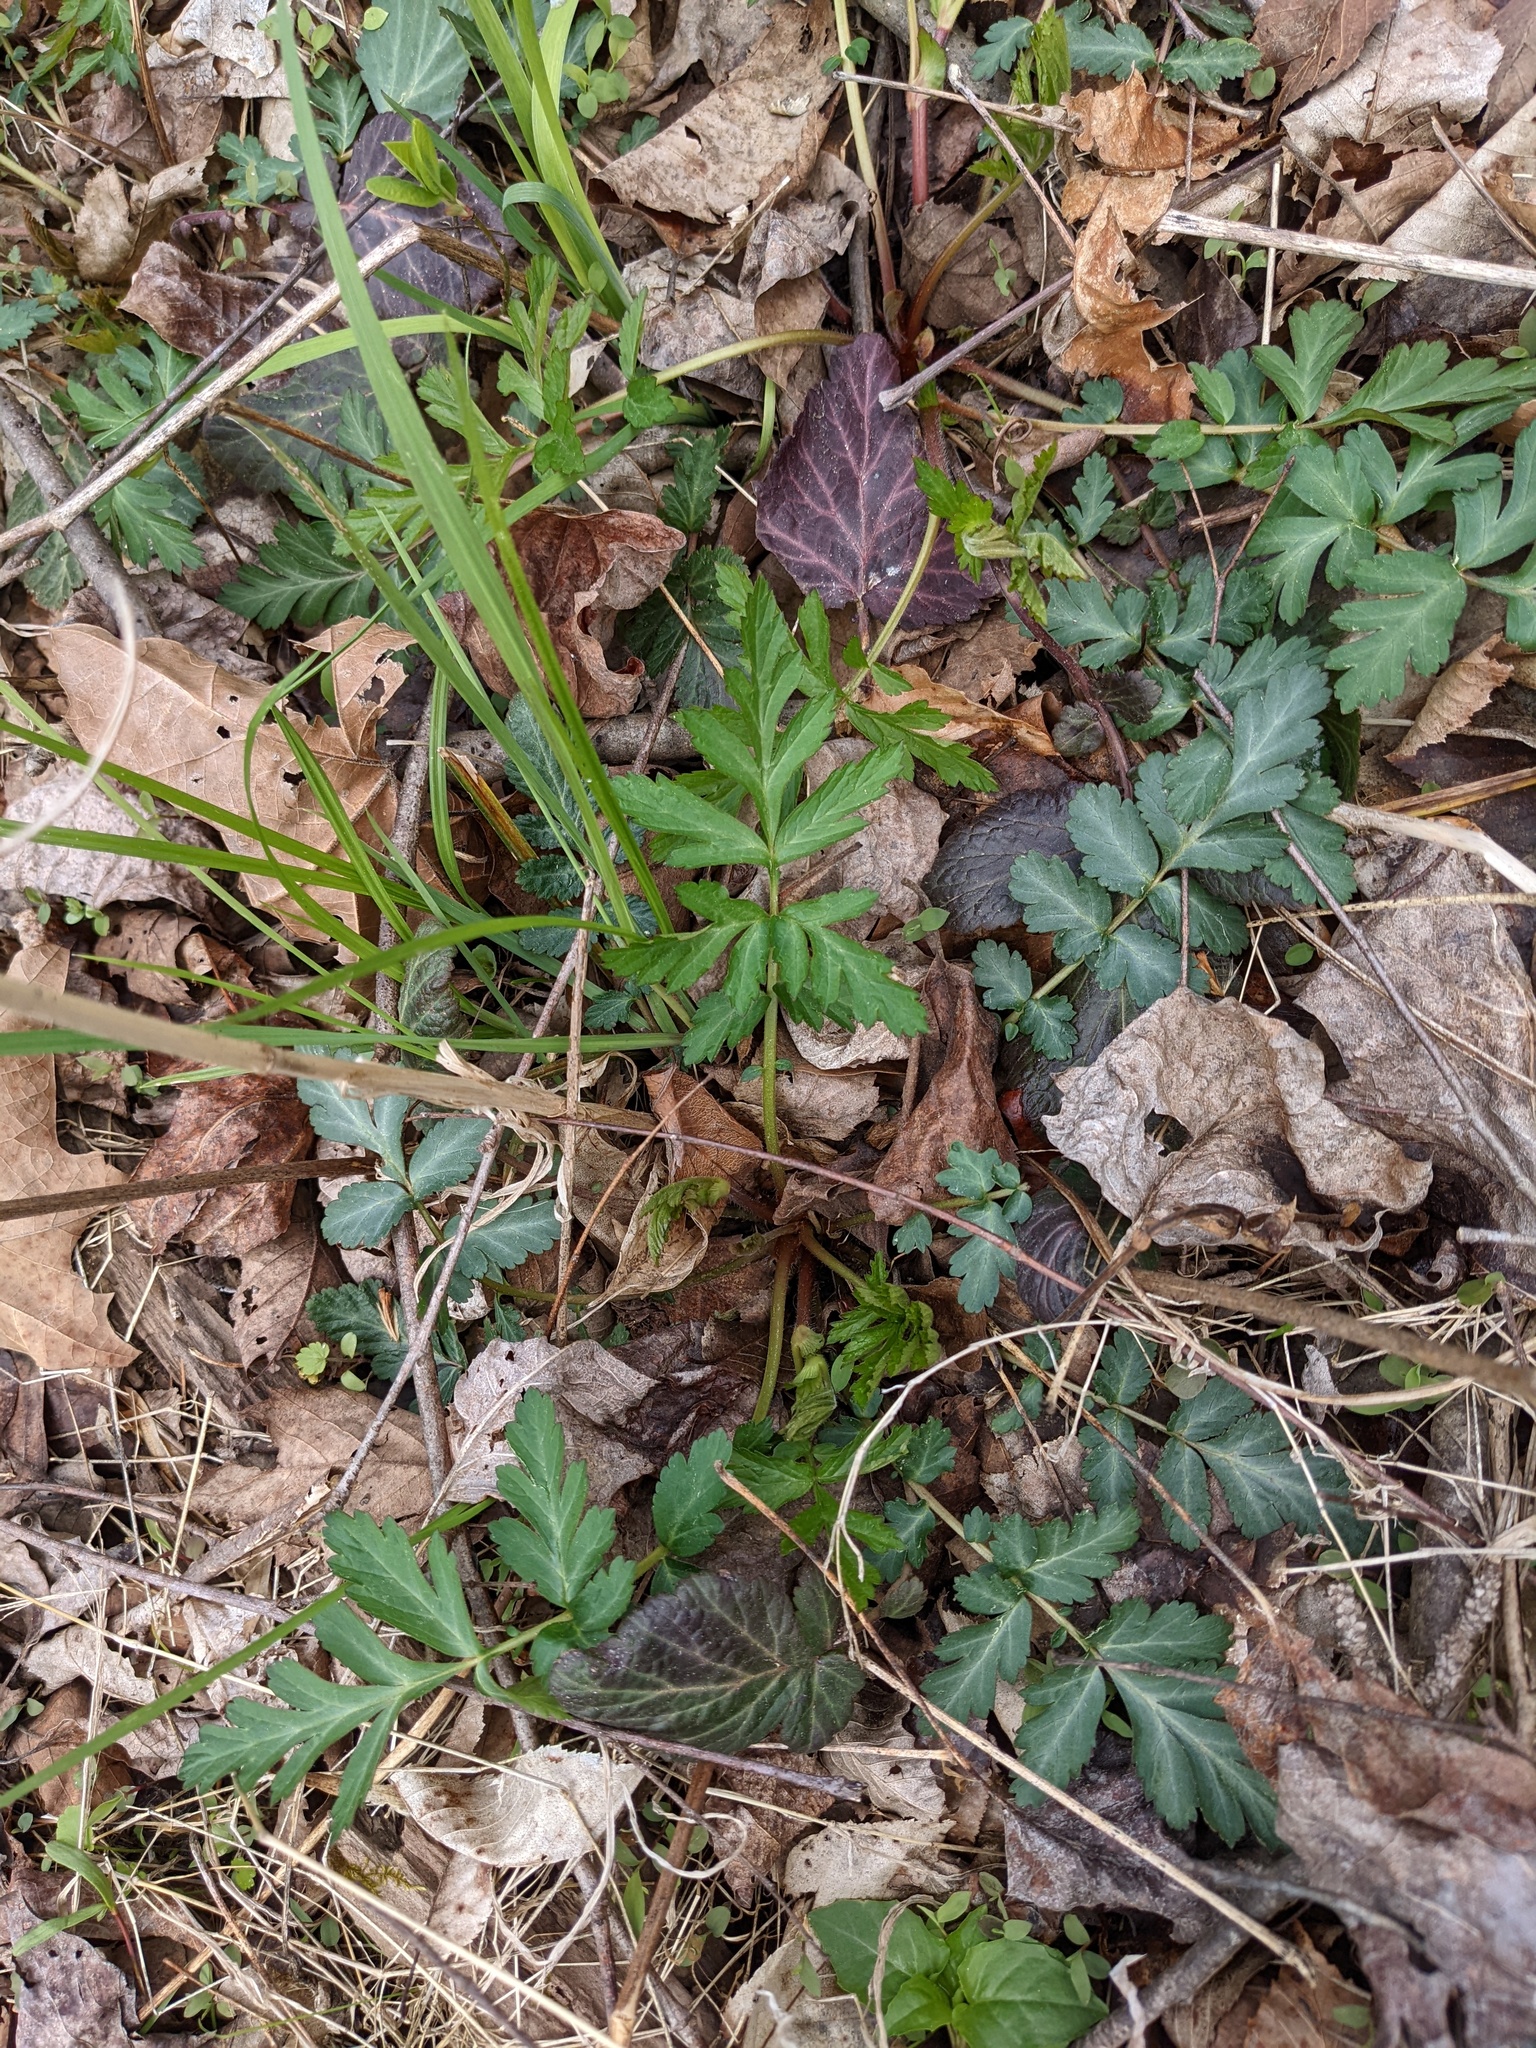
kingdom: Plantae
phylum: Tracheophyta
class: Magnoliopsida
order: Rosales
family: Rosaceae
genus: Geum
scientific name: Geum canadense
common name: White avens
